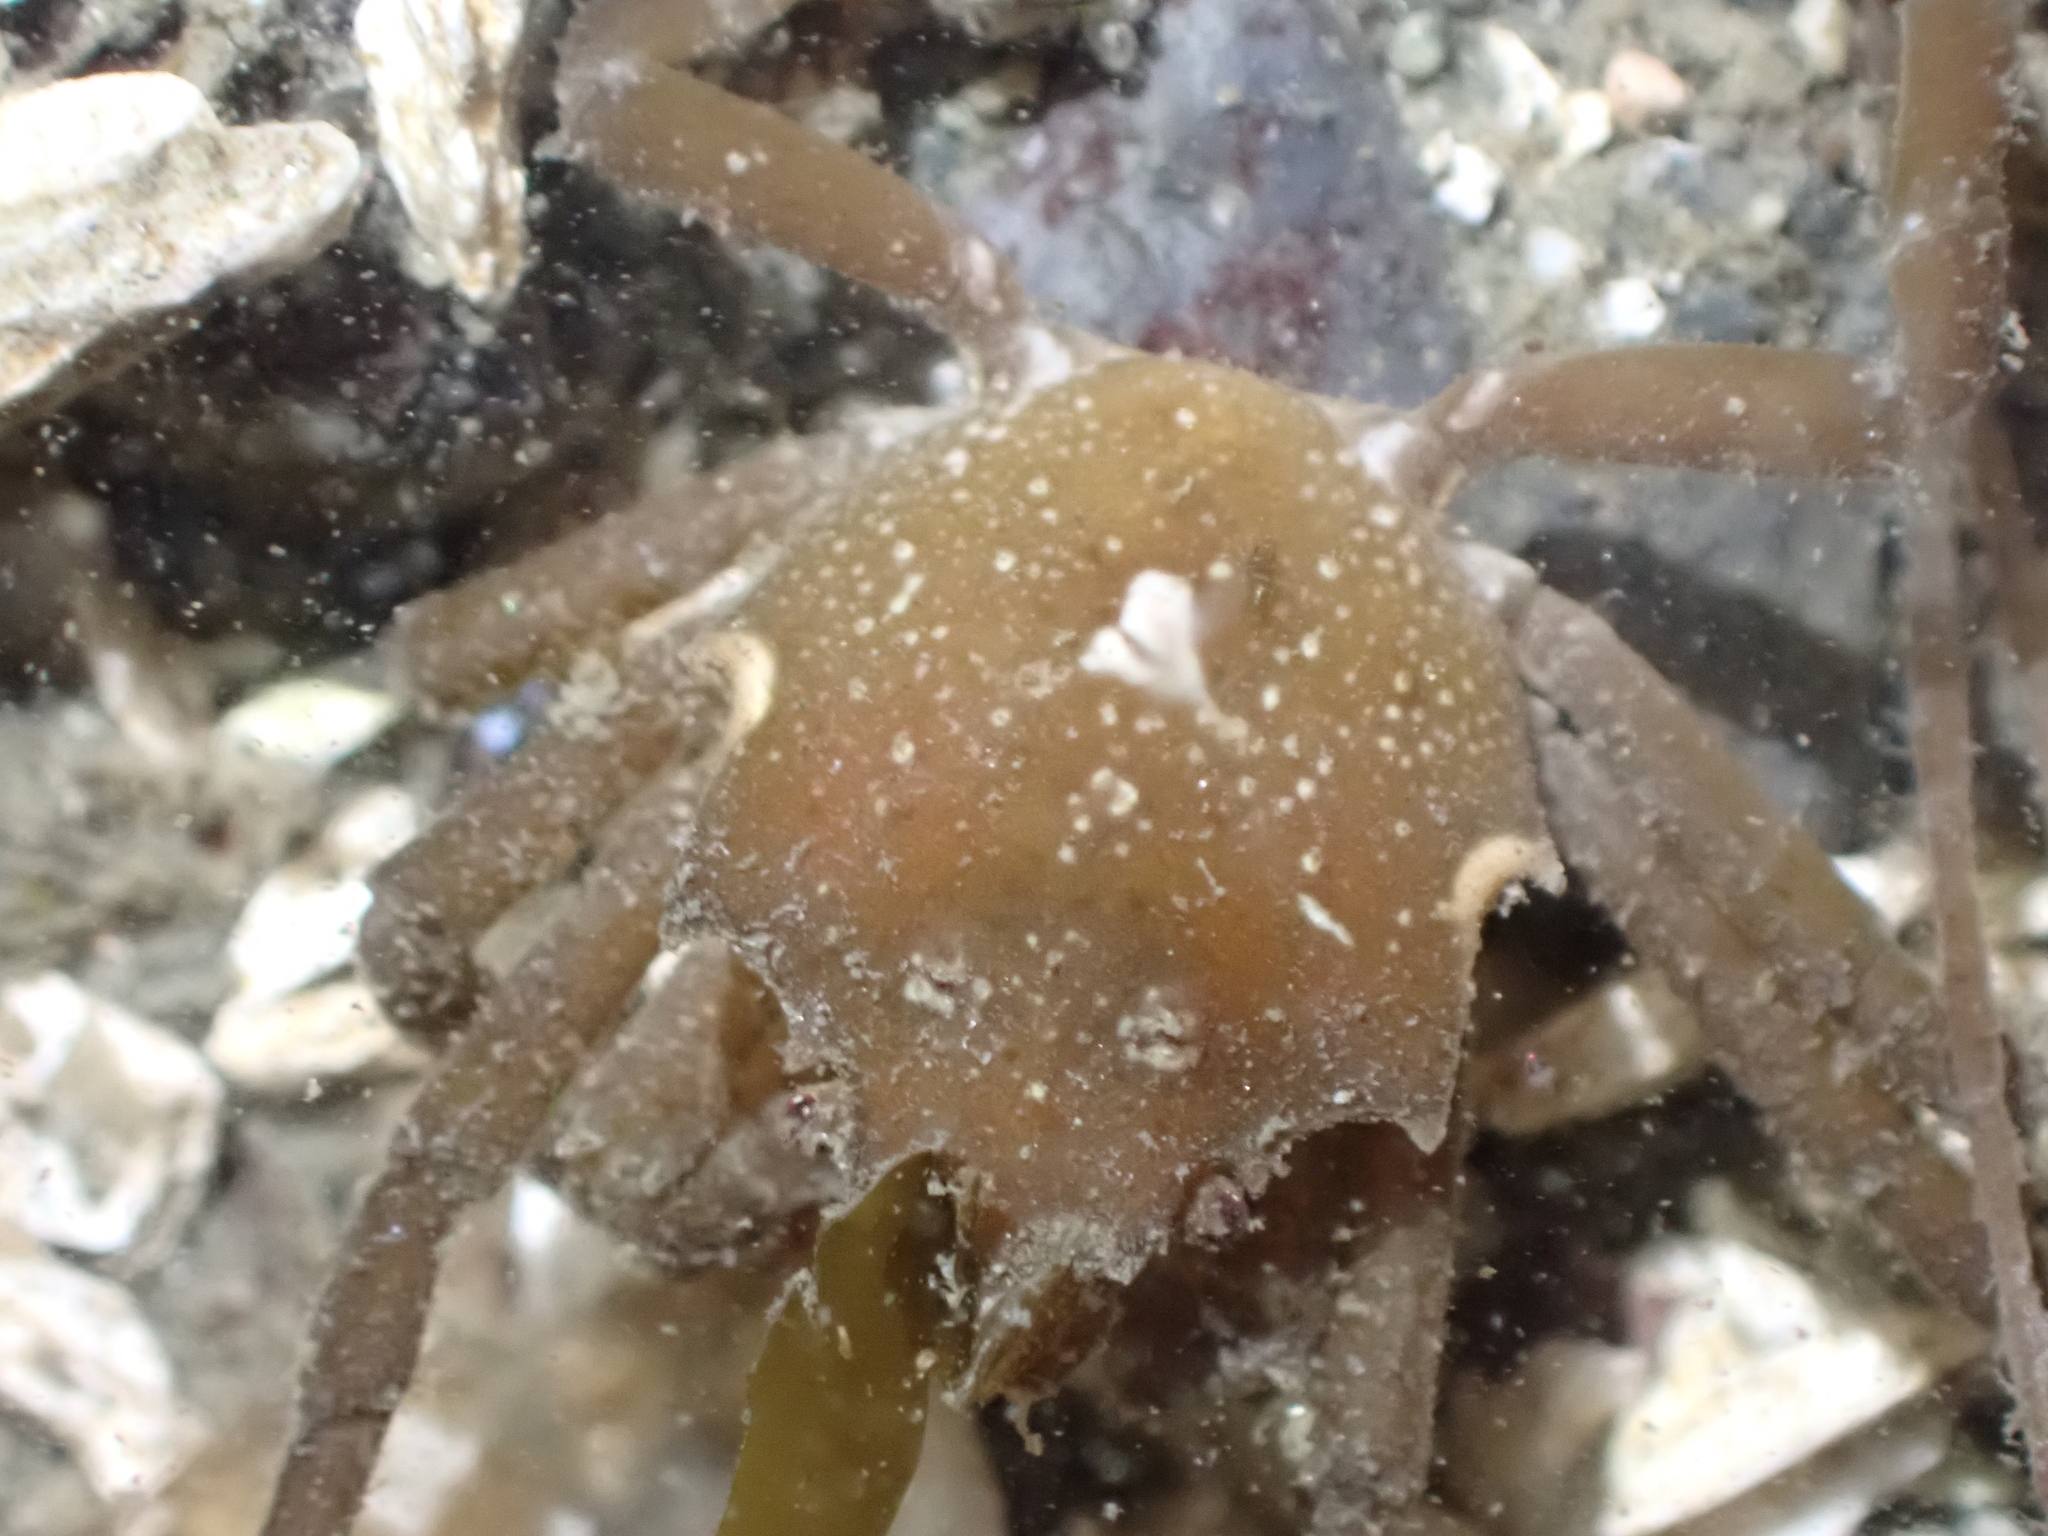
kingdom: Animalia
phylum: Arthropoda
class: Malacostraca
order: Decapoda
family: Epialtidae
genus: Pugettia
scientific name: Pugettia producta
